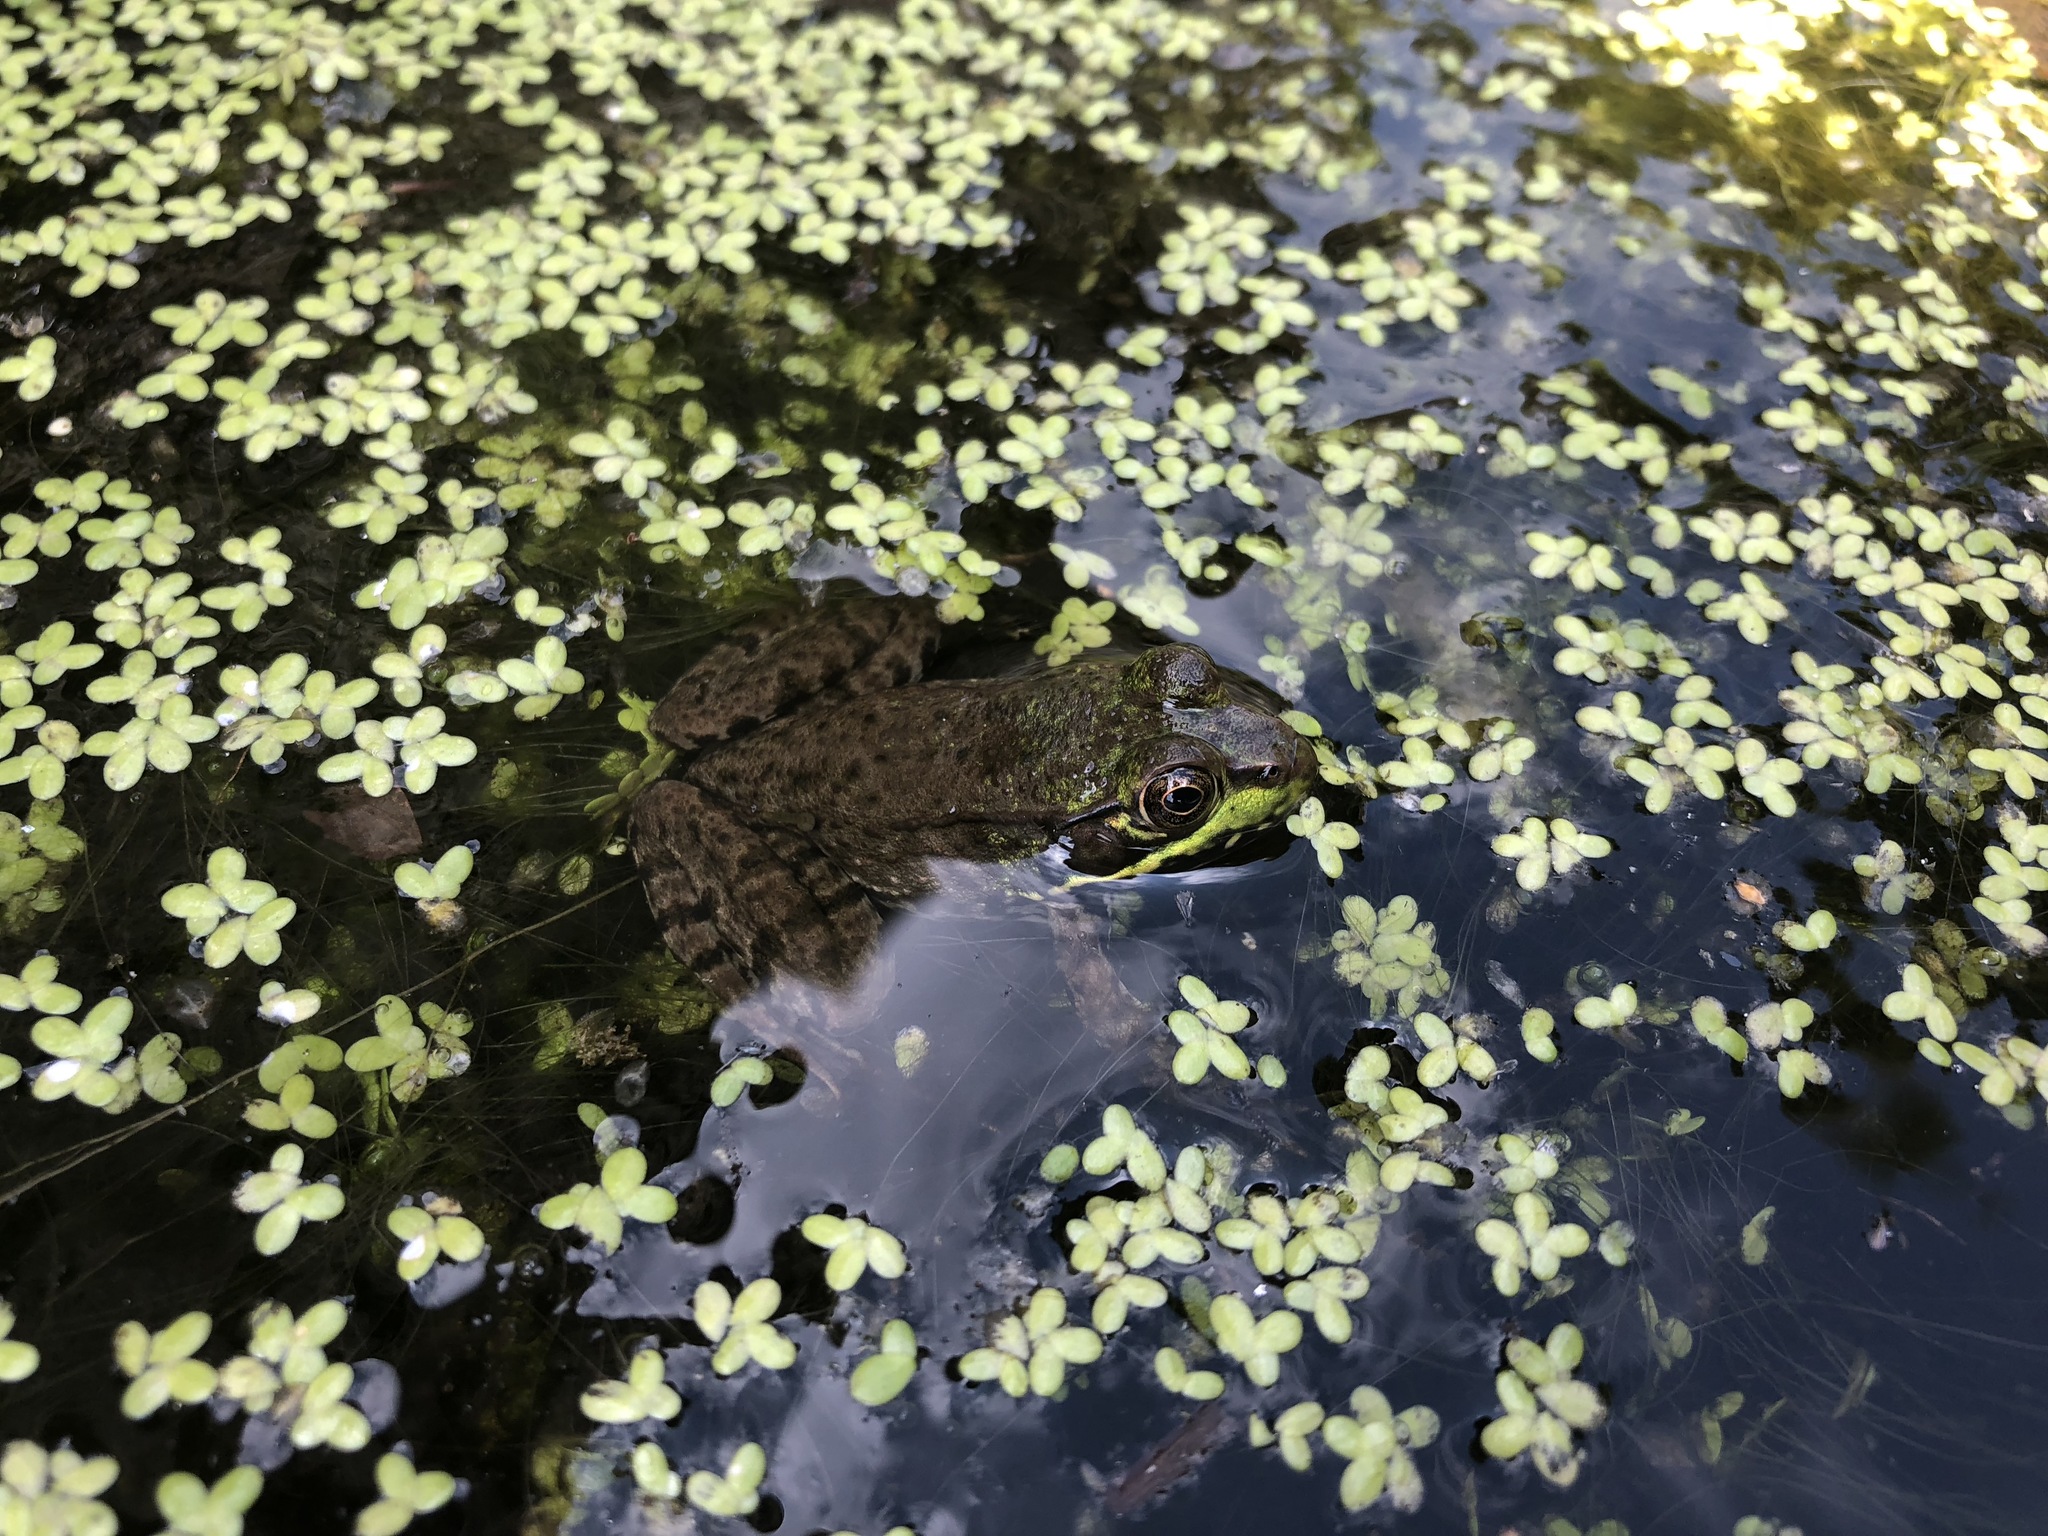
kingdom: Animalia
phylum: Chordata
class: Amphibia
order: Anura
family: Ranidae
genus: Lithobates
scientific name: Lithobates clamitans
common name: Green frog
